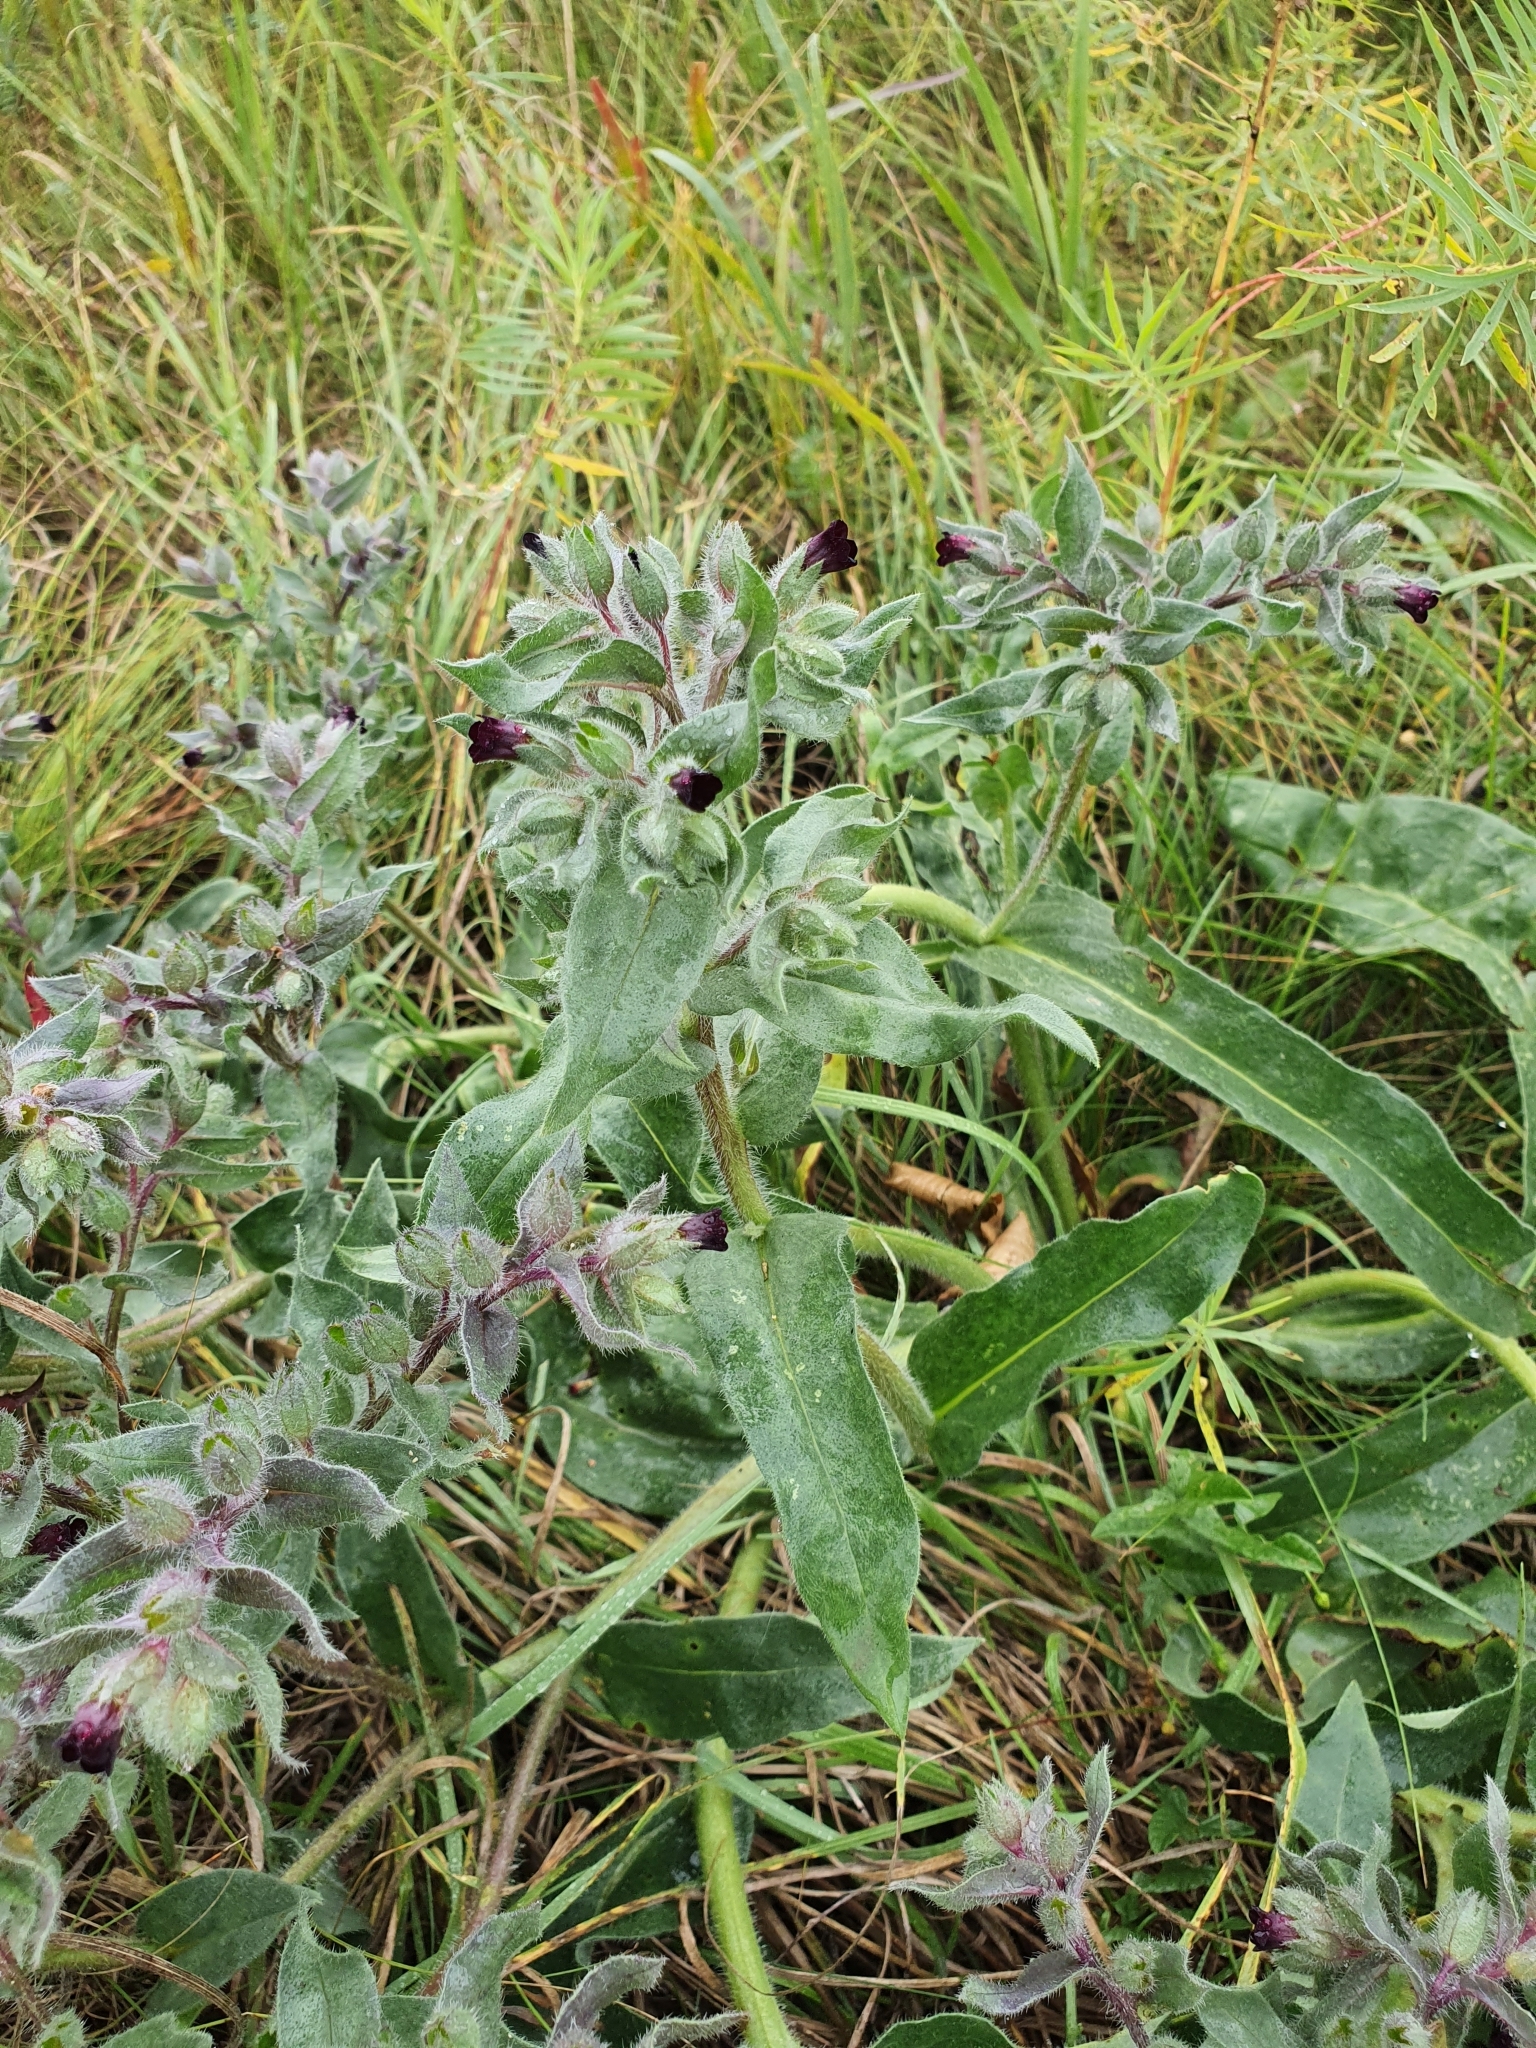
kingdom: Plantae
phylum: Tracheophyta
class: Magnoliopsida
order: Boraginales
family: Boraginaceae
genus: Nonea
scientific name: Nonea pulla
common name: Brown nonea
